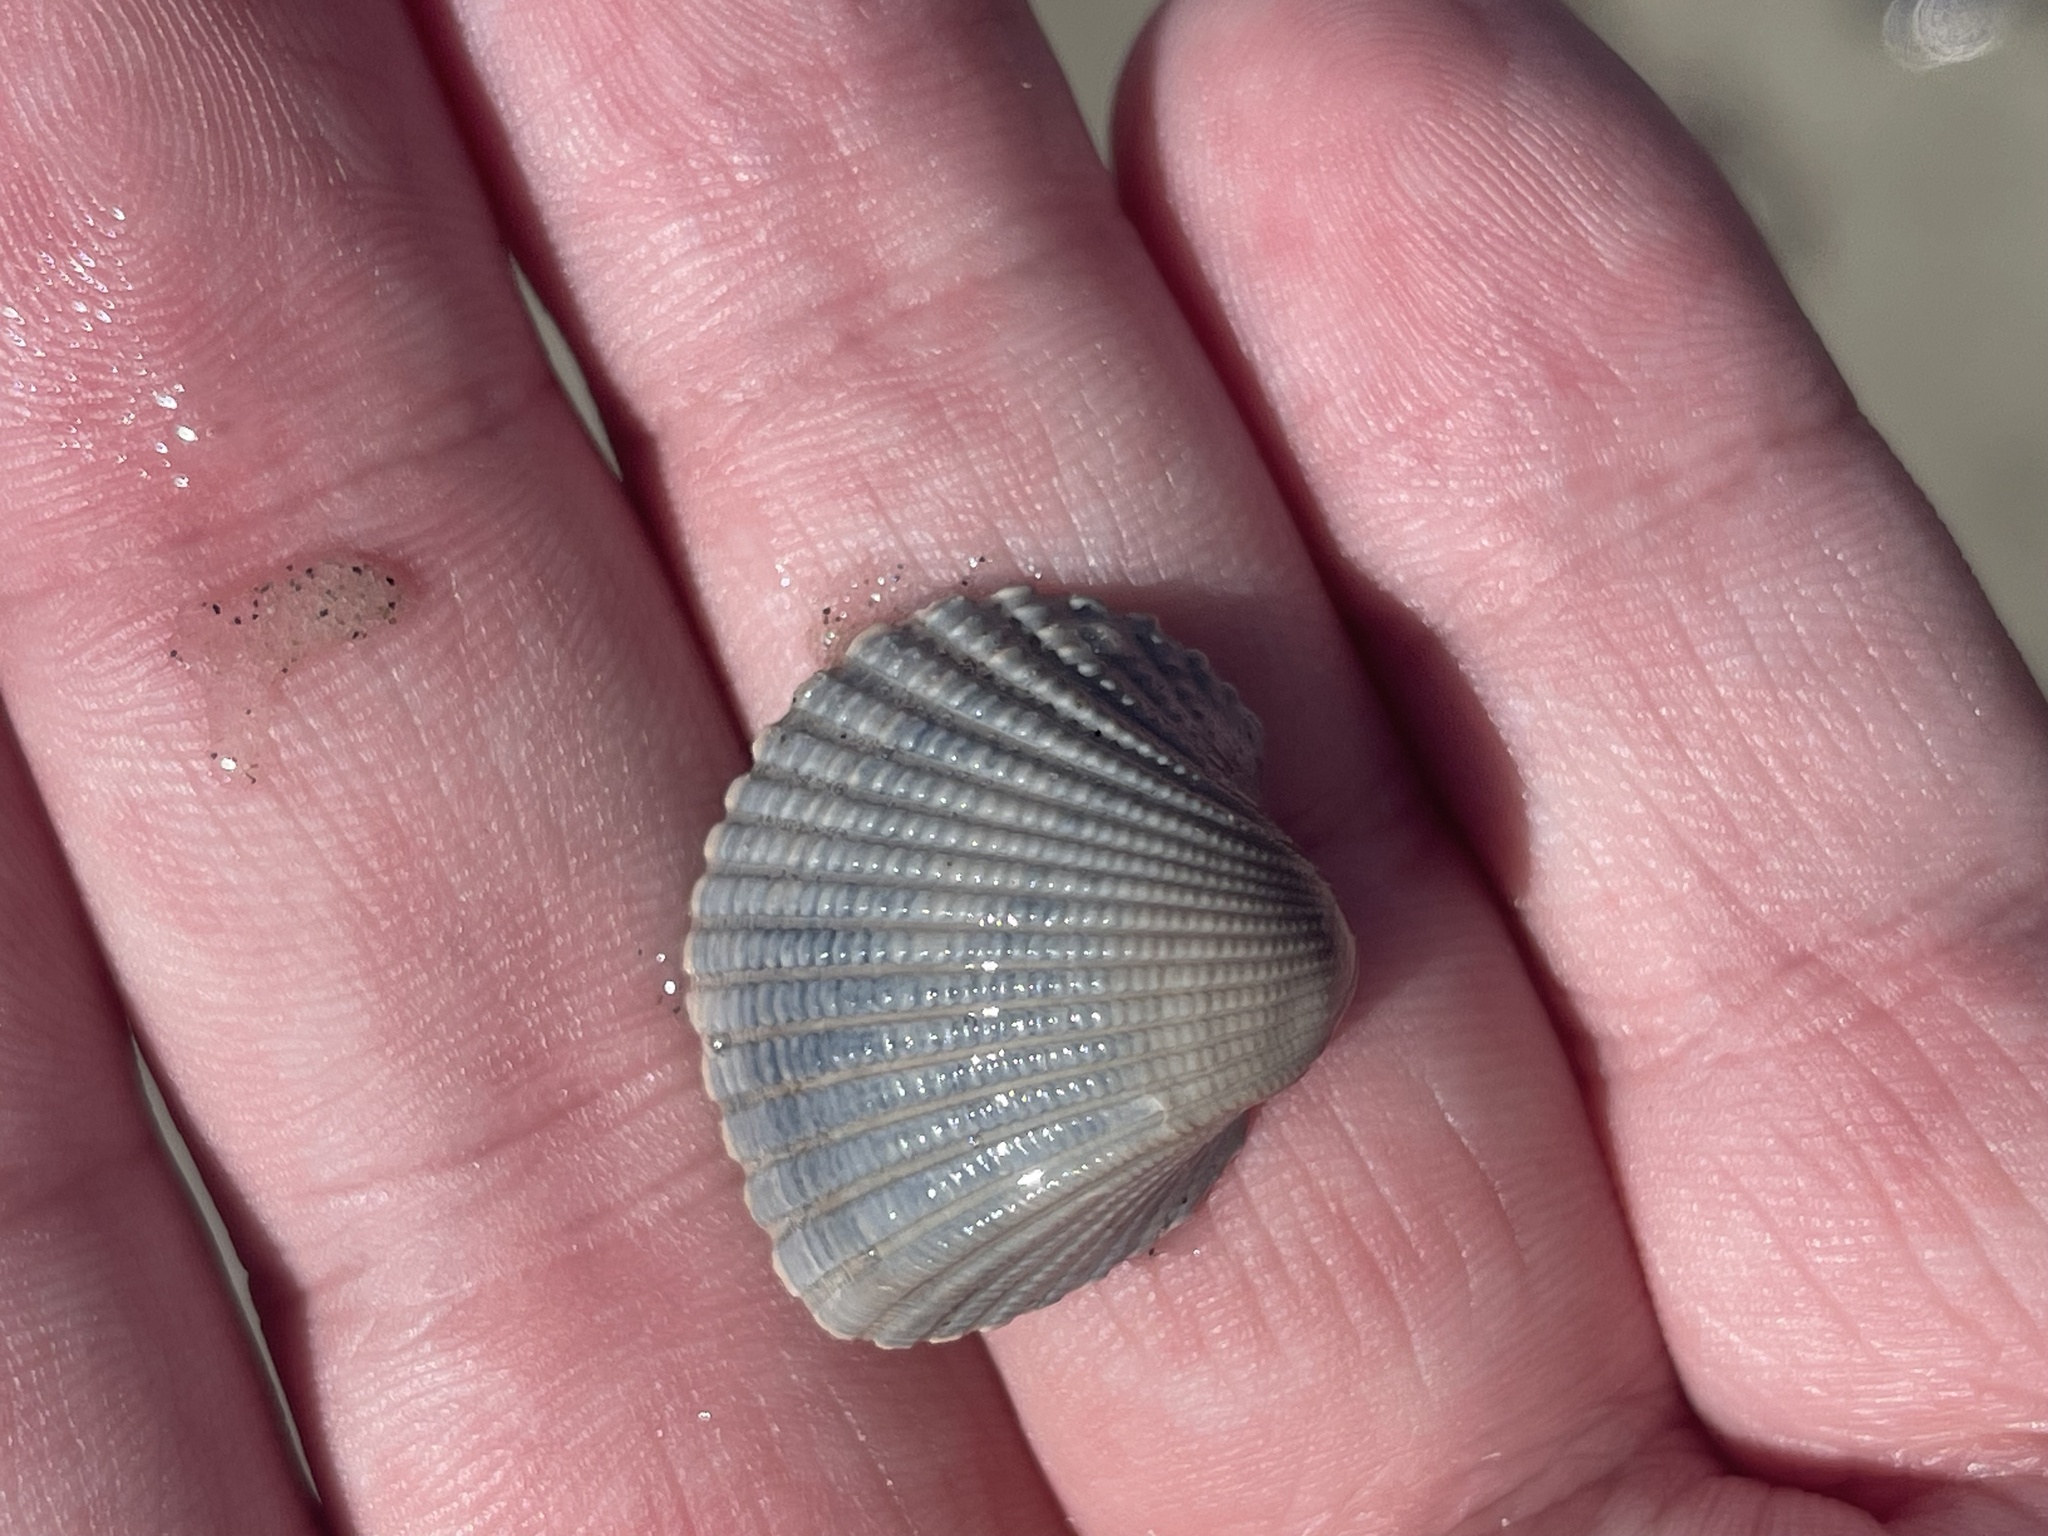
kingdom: Animalia
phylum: Mollusca
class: Bivalvia
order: Arcida
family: Arcidae
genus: Anadara
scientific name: Anadara brasiliana
